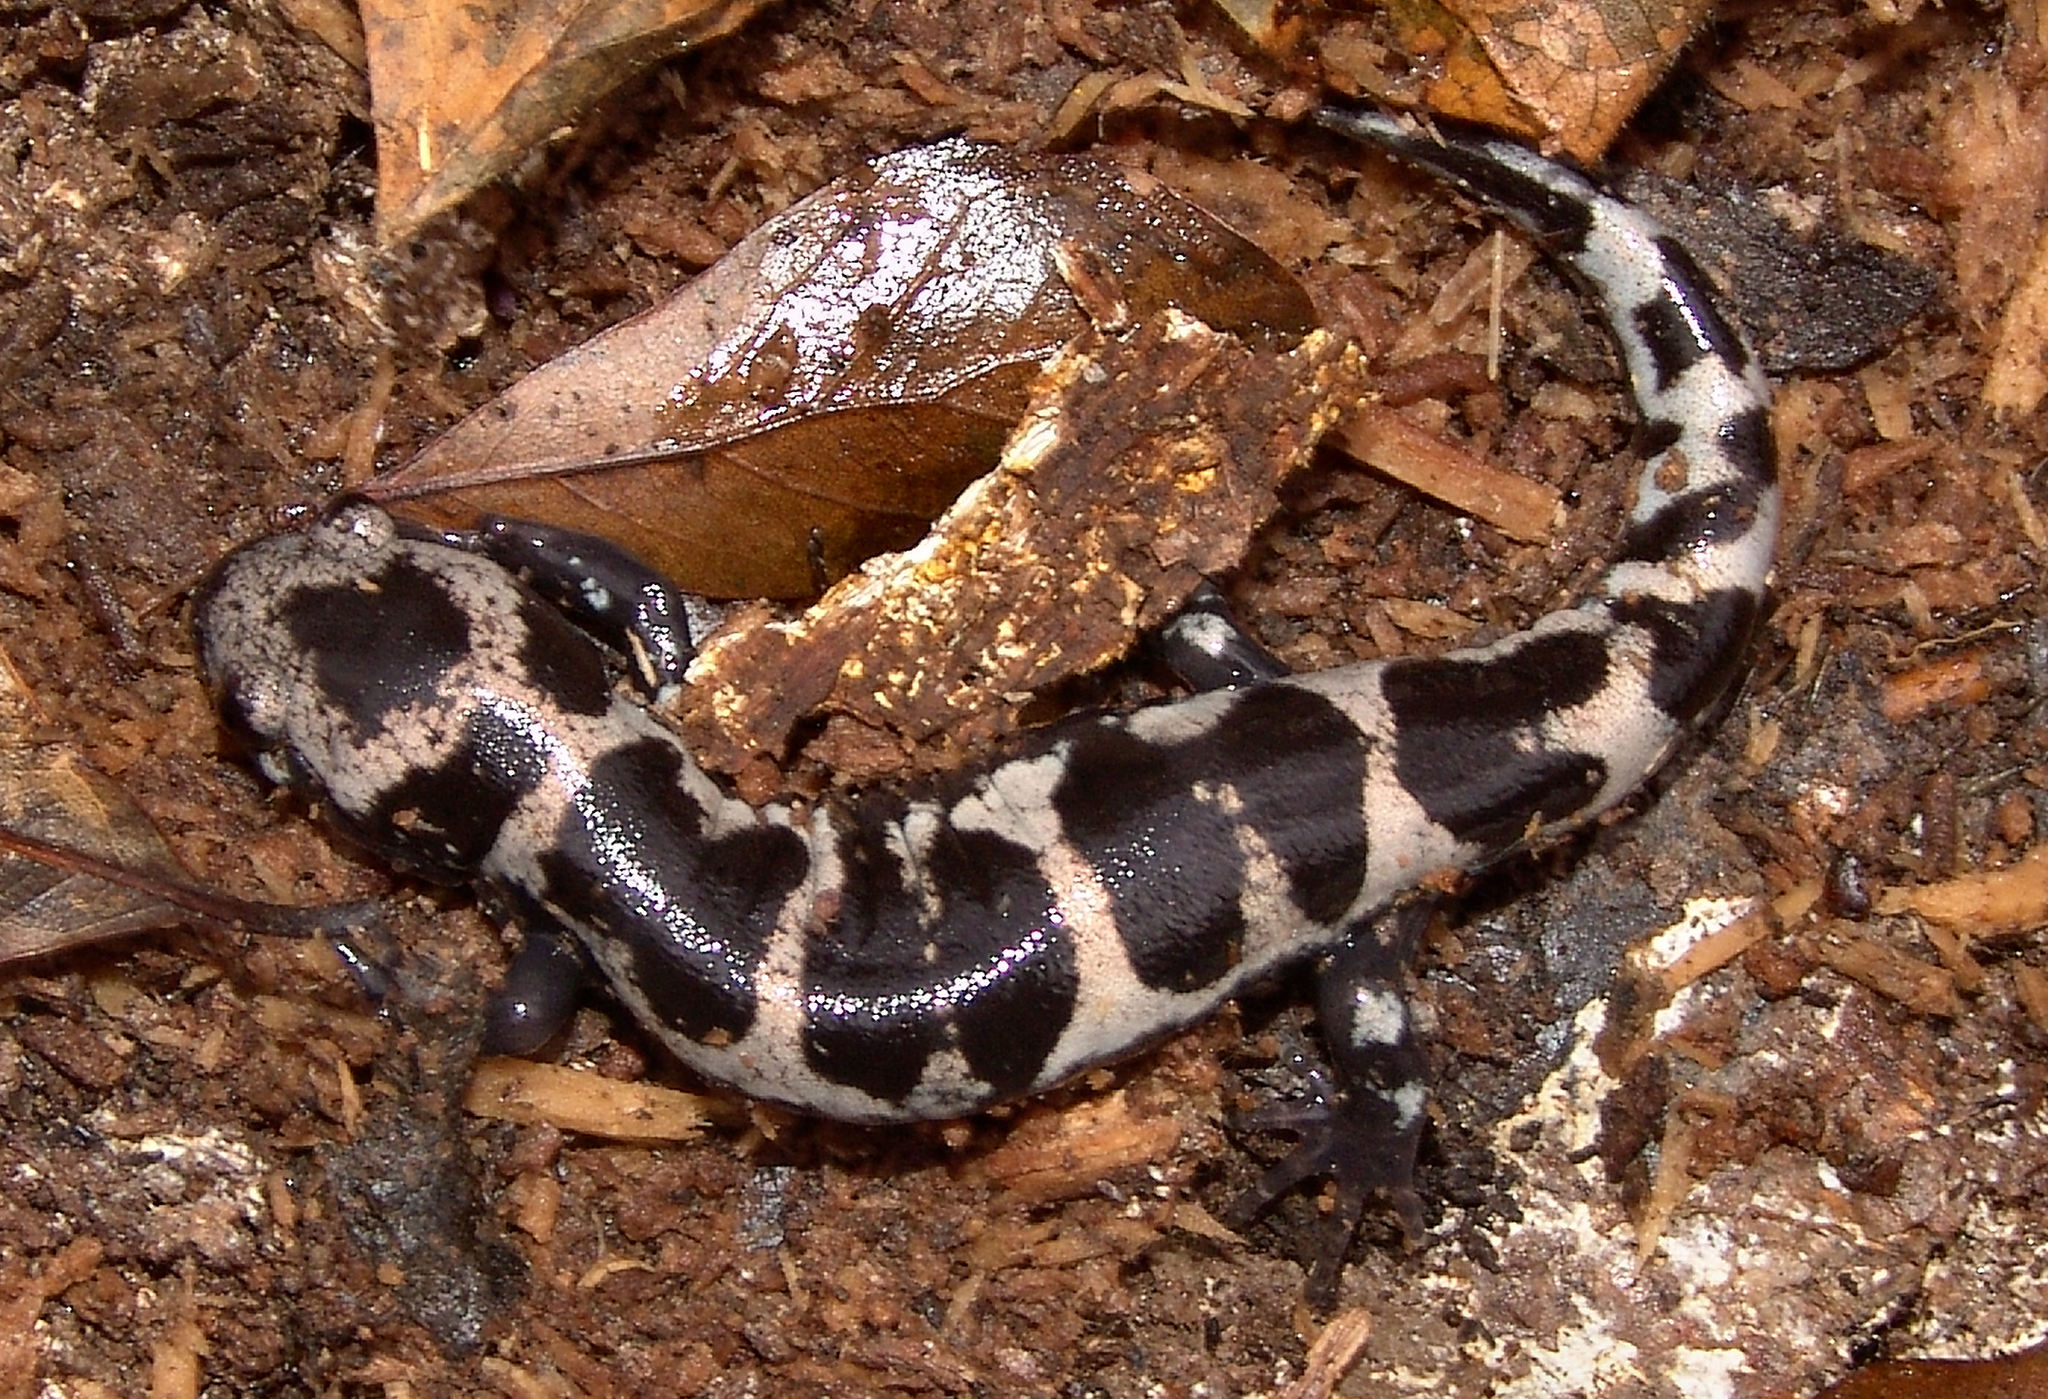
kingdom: Animalia
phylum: Chordata
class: Amphibia
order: Caudata
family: Ambystomatidae
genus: Ambystoma
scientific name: Ambystoma opacum
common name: Marbled salamander
